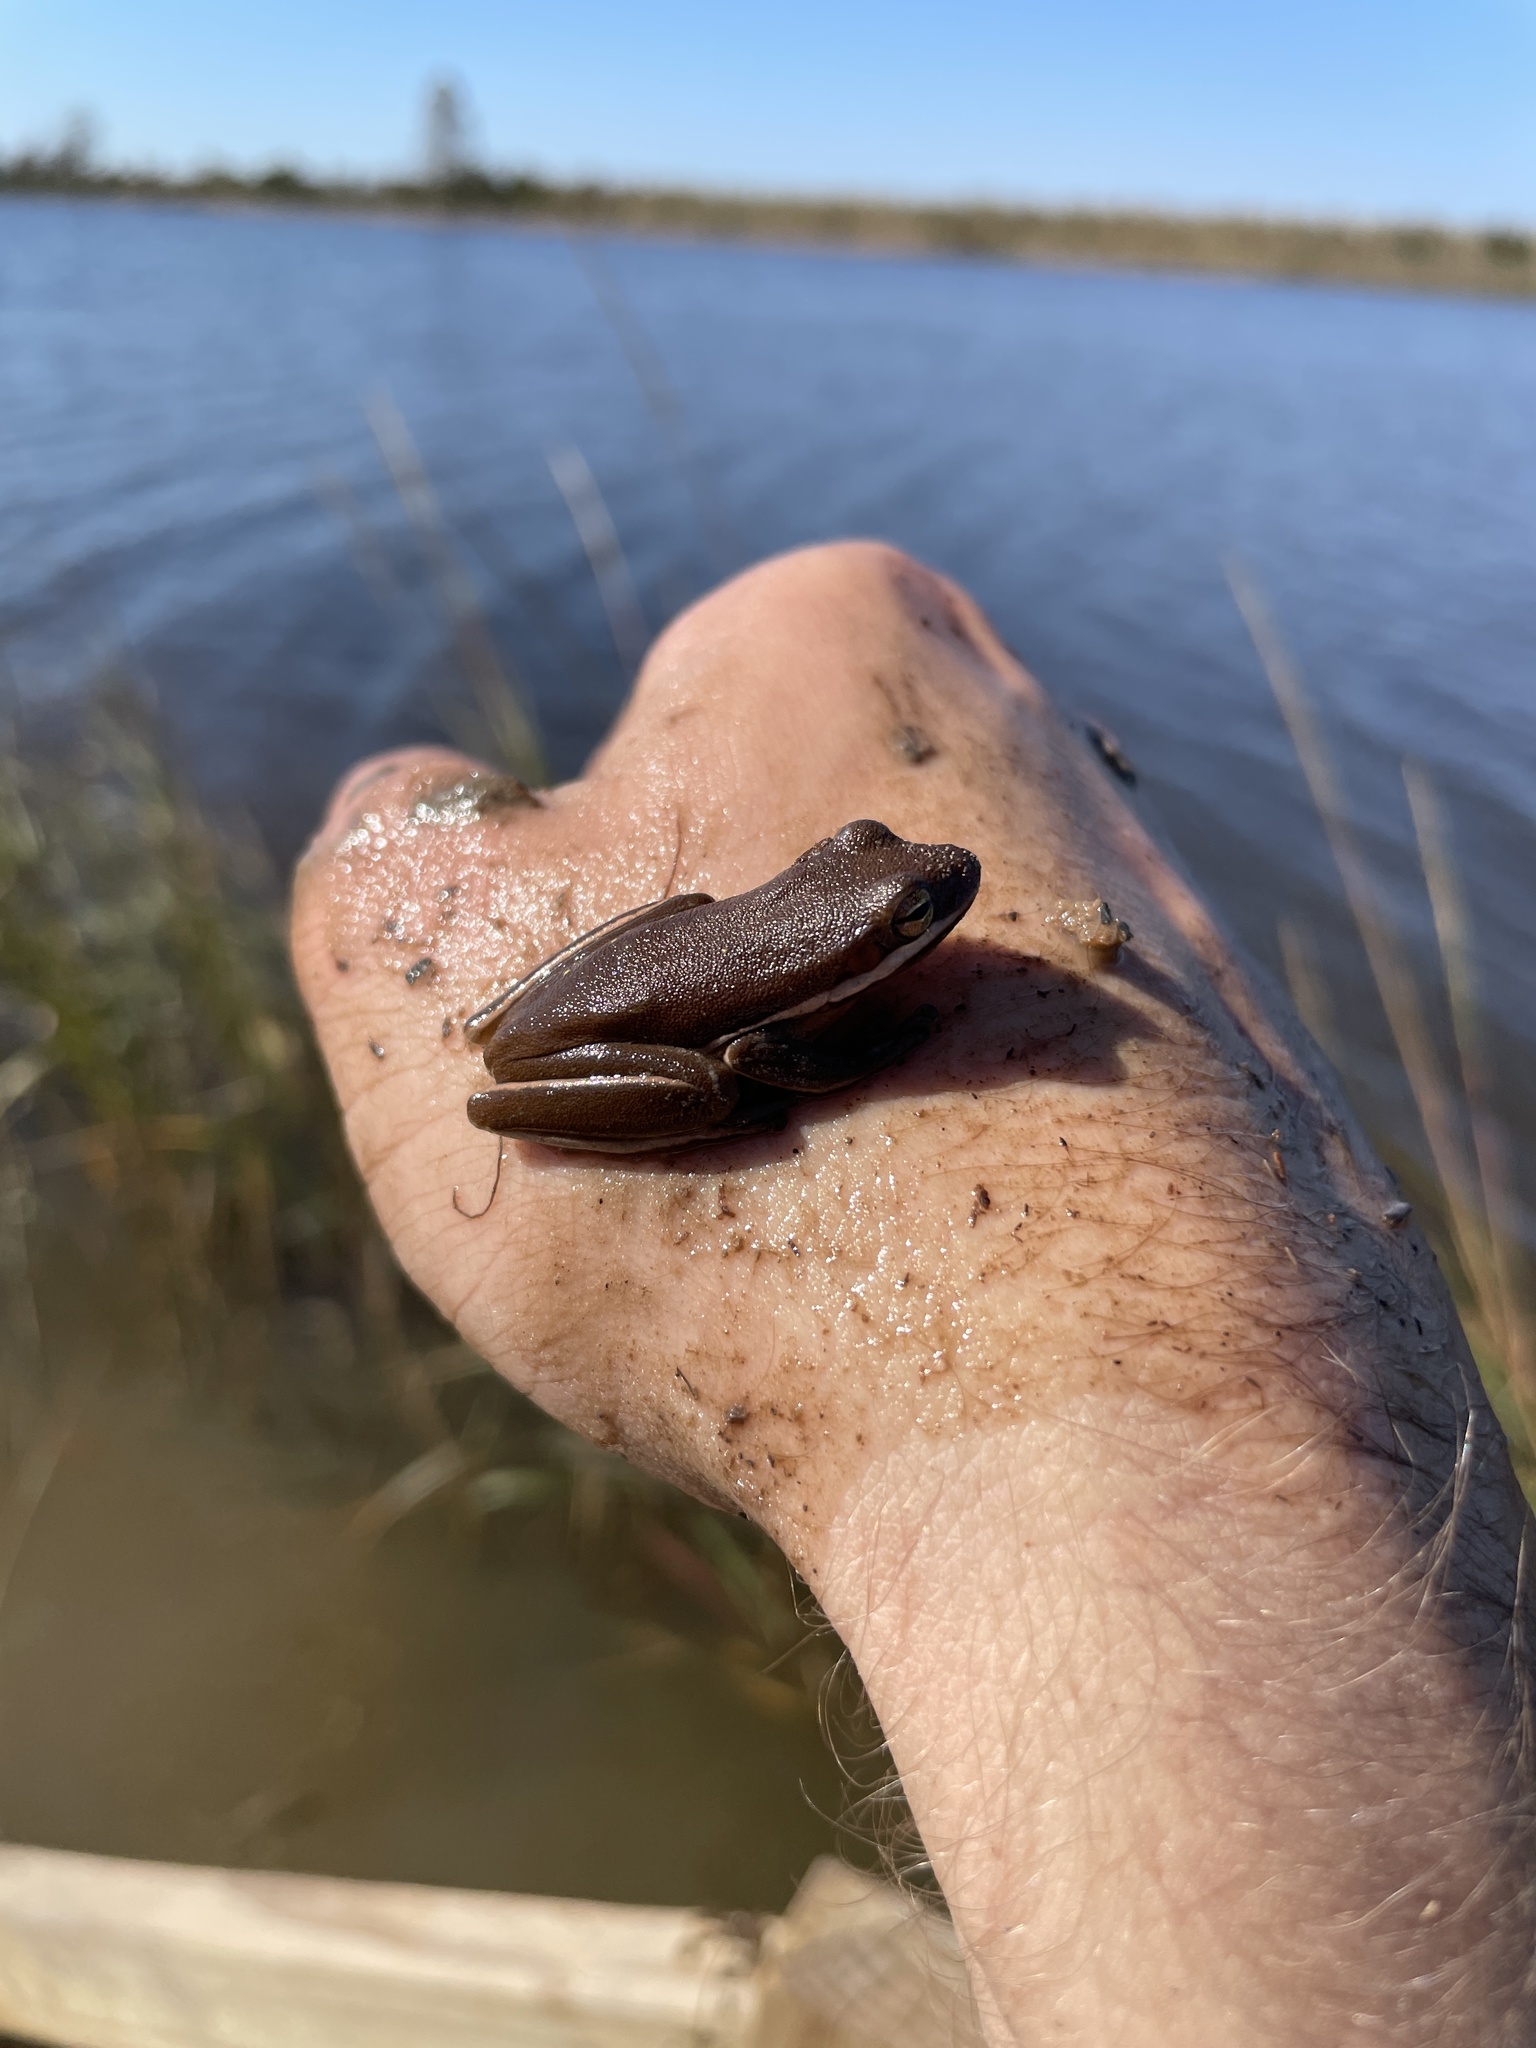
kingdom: Animalia
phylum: Chordata
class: Amphibia
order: Anura
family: Hylidae
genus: Dryophytes
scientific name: Dryophytes cinereus
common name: Green treefrog
